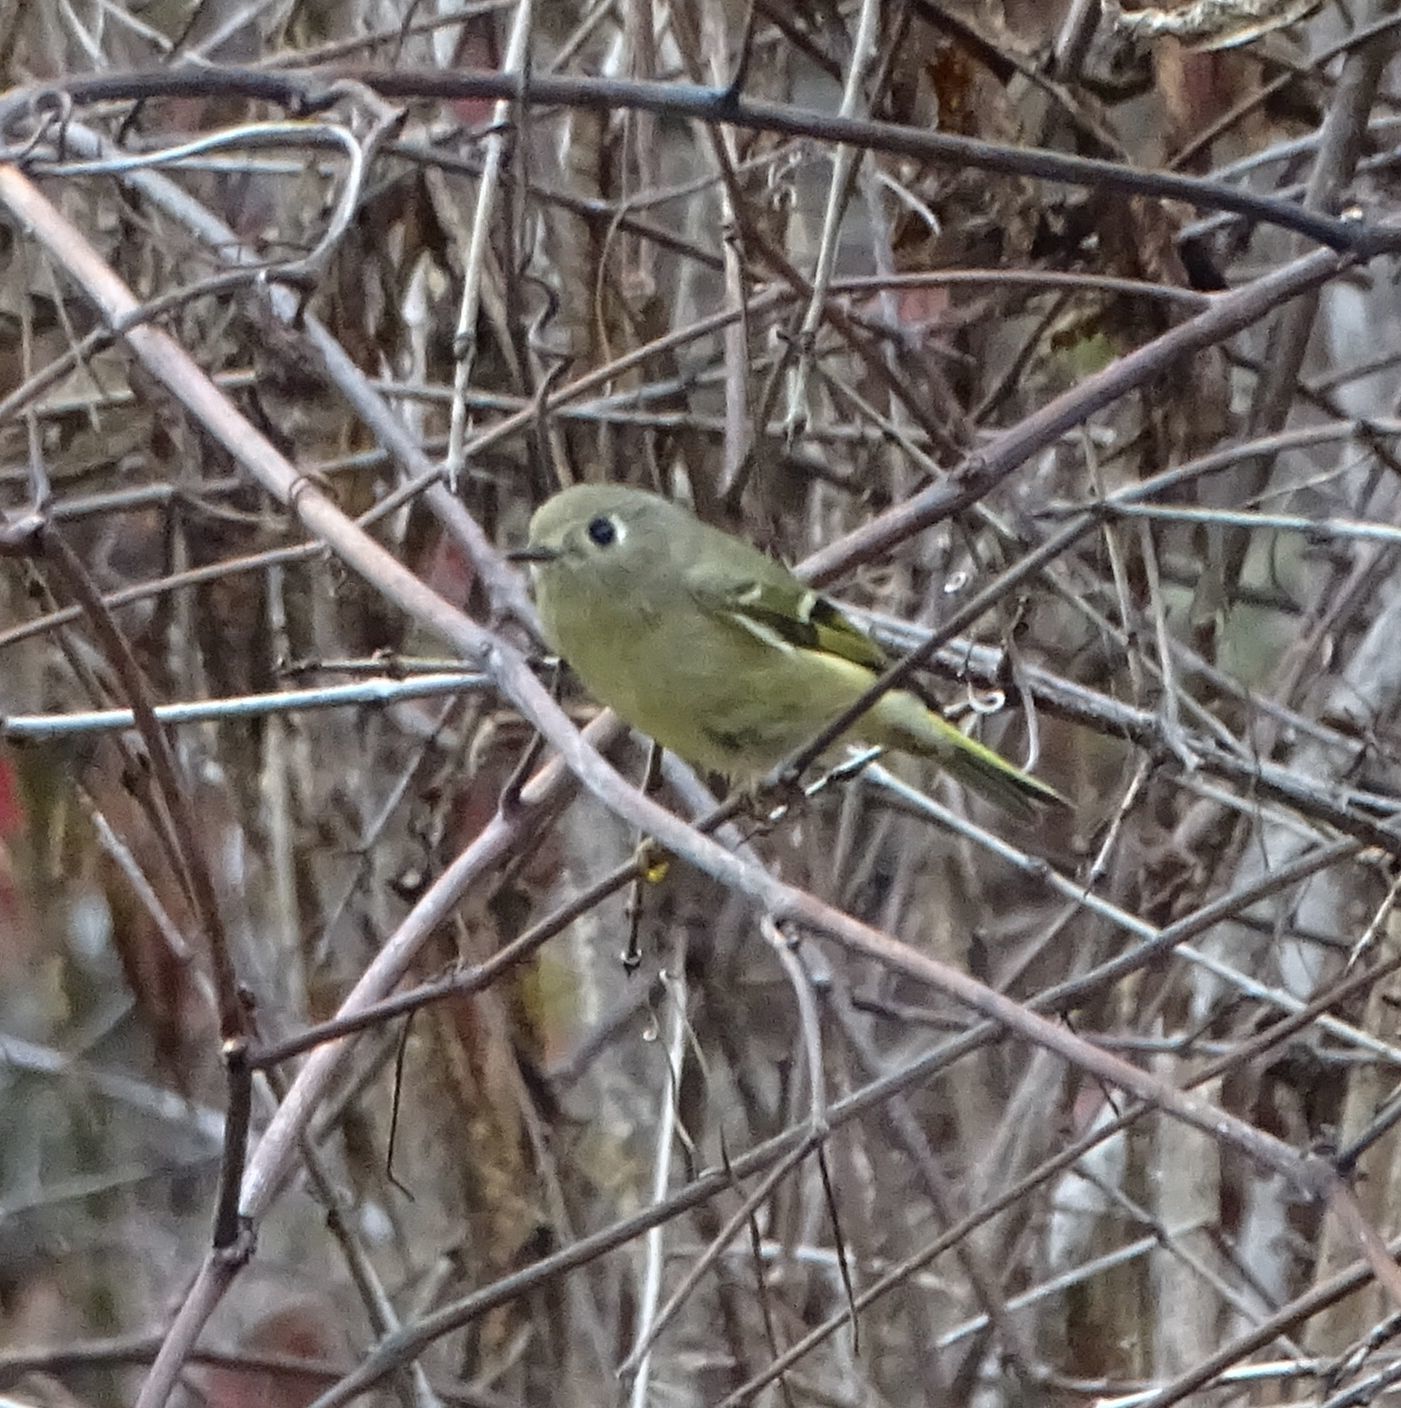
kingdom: Animalia
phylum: Chordata
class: Aves
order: Passeriformes
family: Regulidae
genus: Regulus
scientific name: Regulus calendula
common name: Ruby-crowned kinglet
